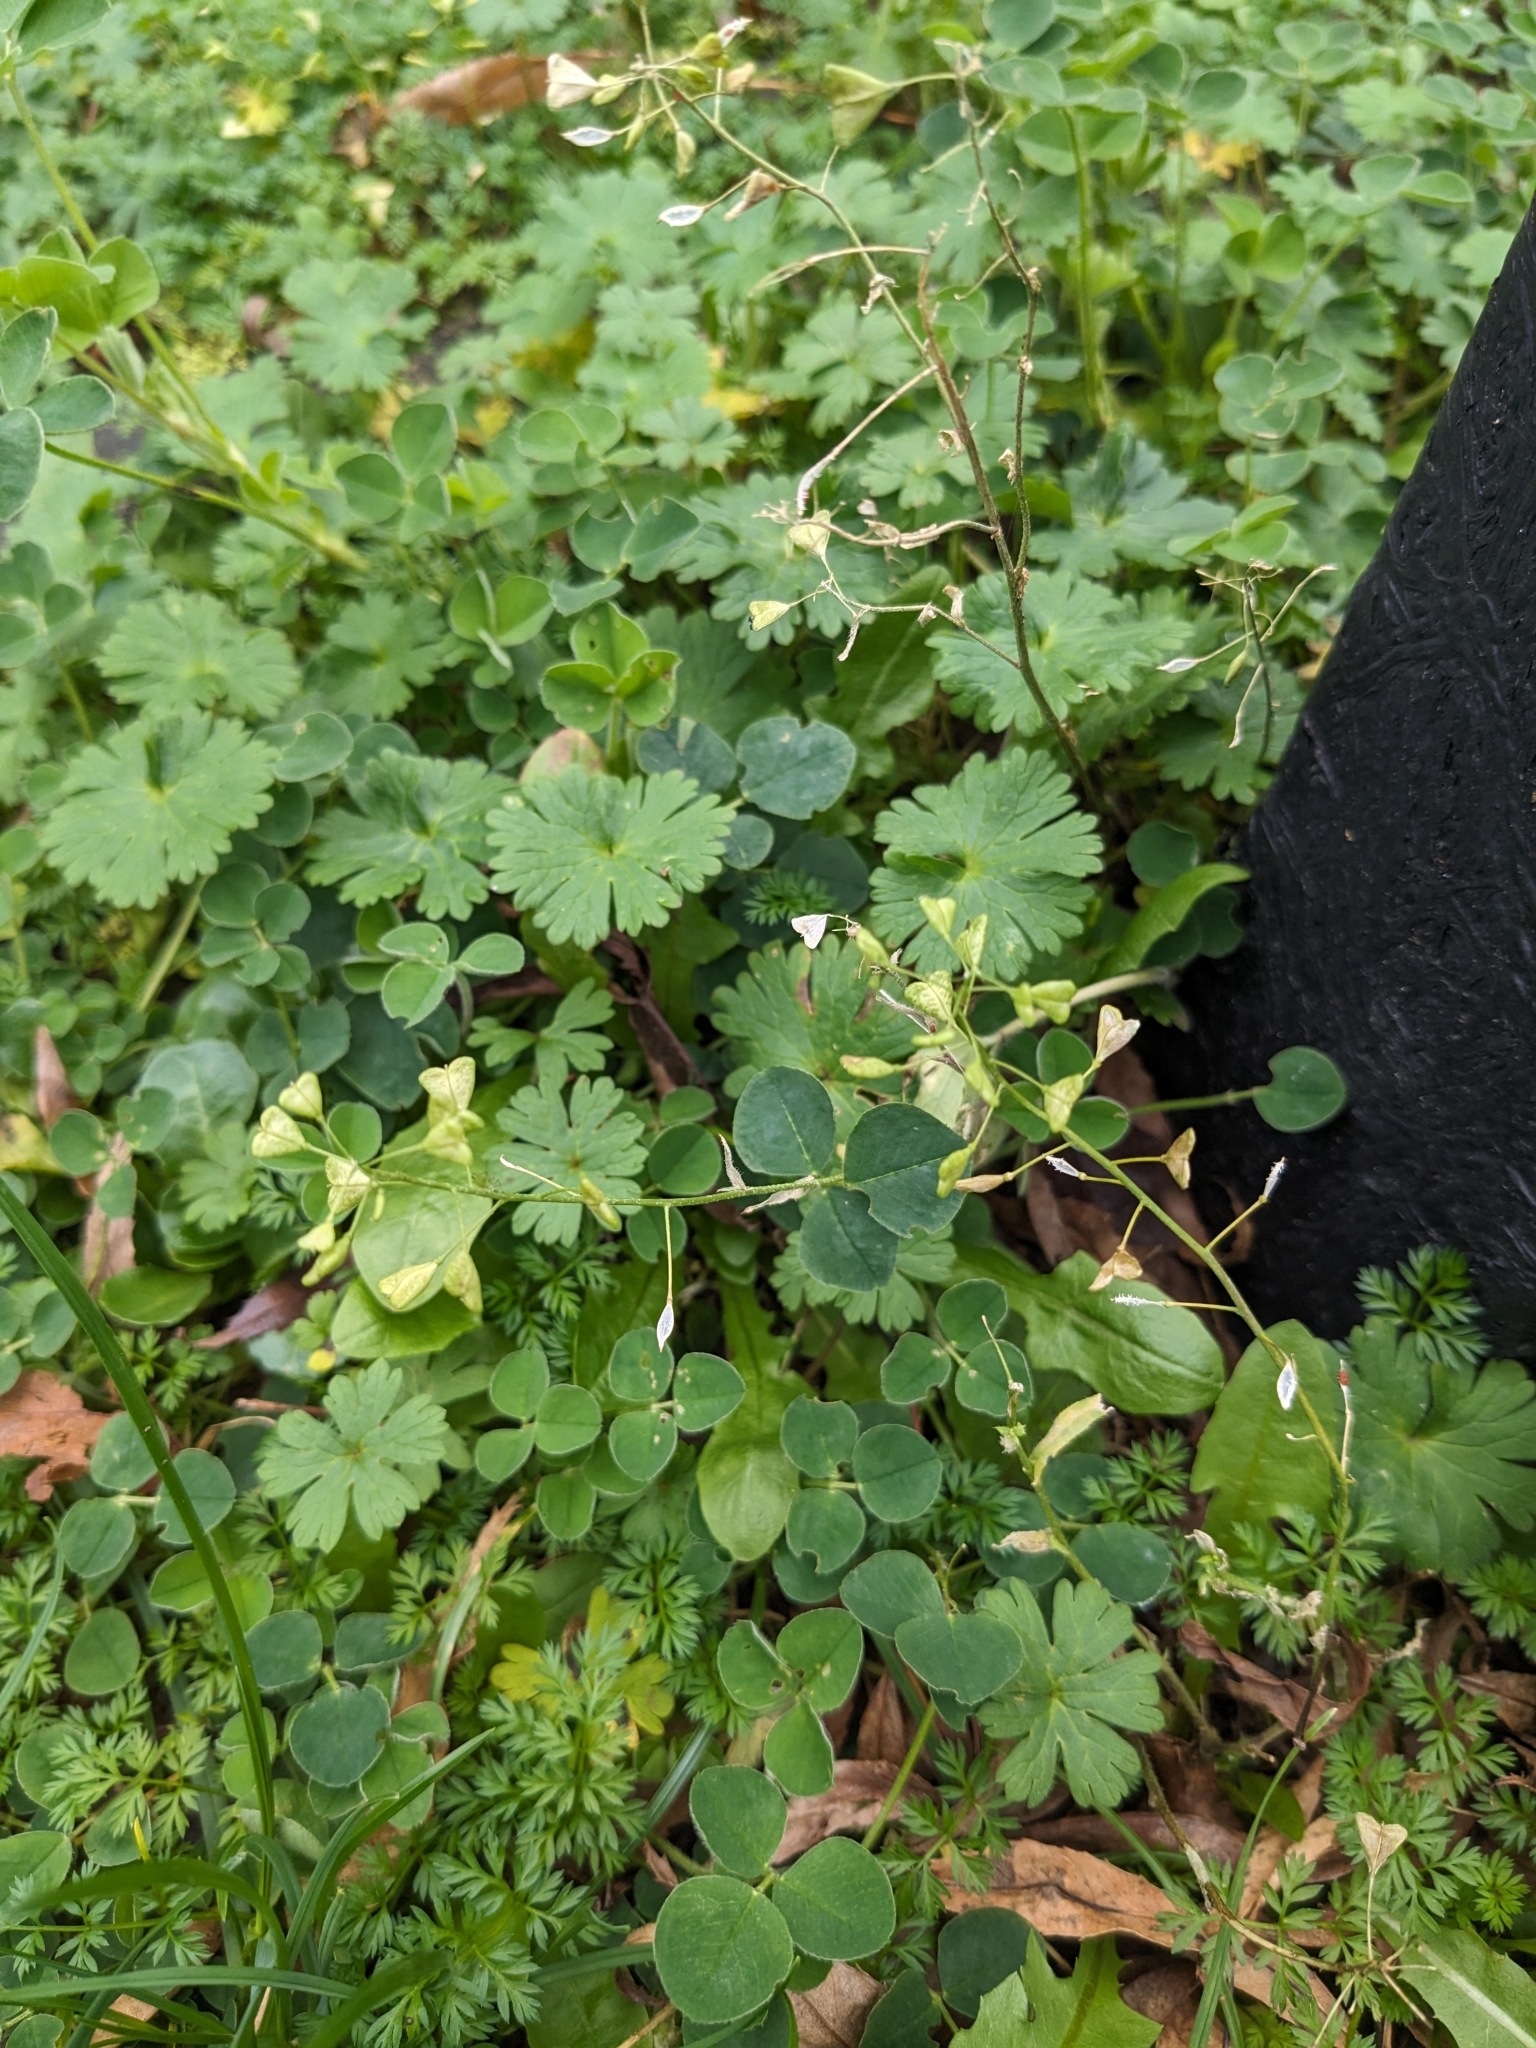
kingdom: Plantae
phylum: Tracheophyta
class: Magnoliopsida
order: Brassicales
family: Brassicaceae
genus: Capsella
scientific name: Capsella bursa-pastoris
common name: Shepherd's purse
